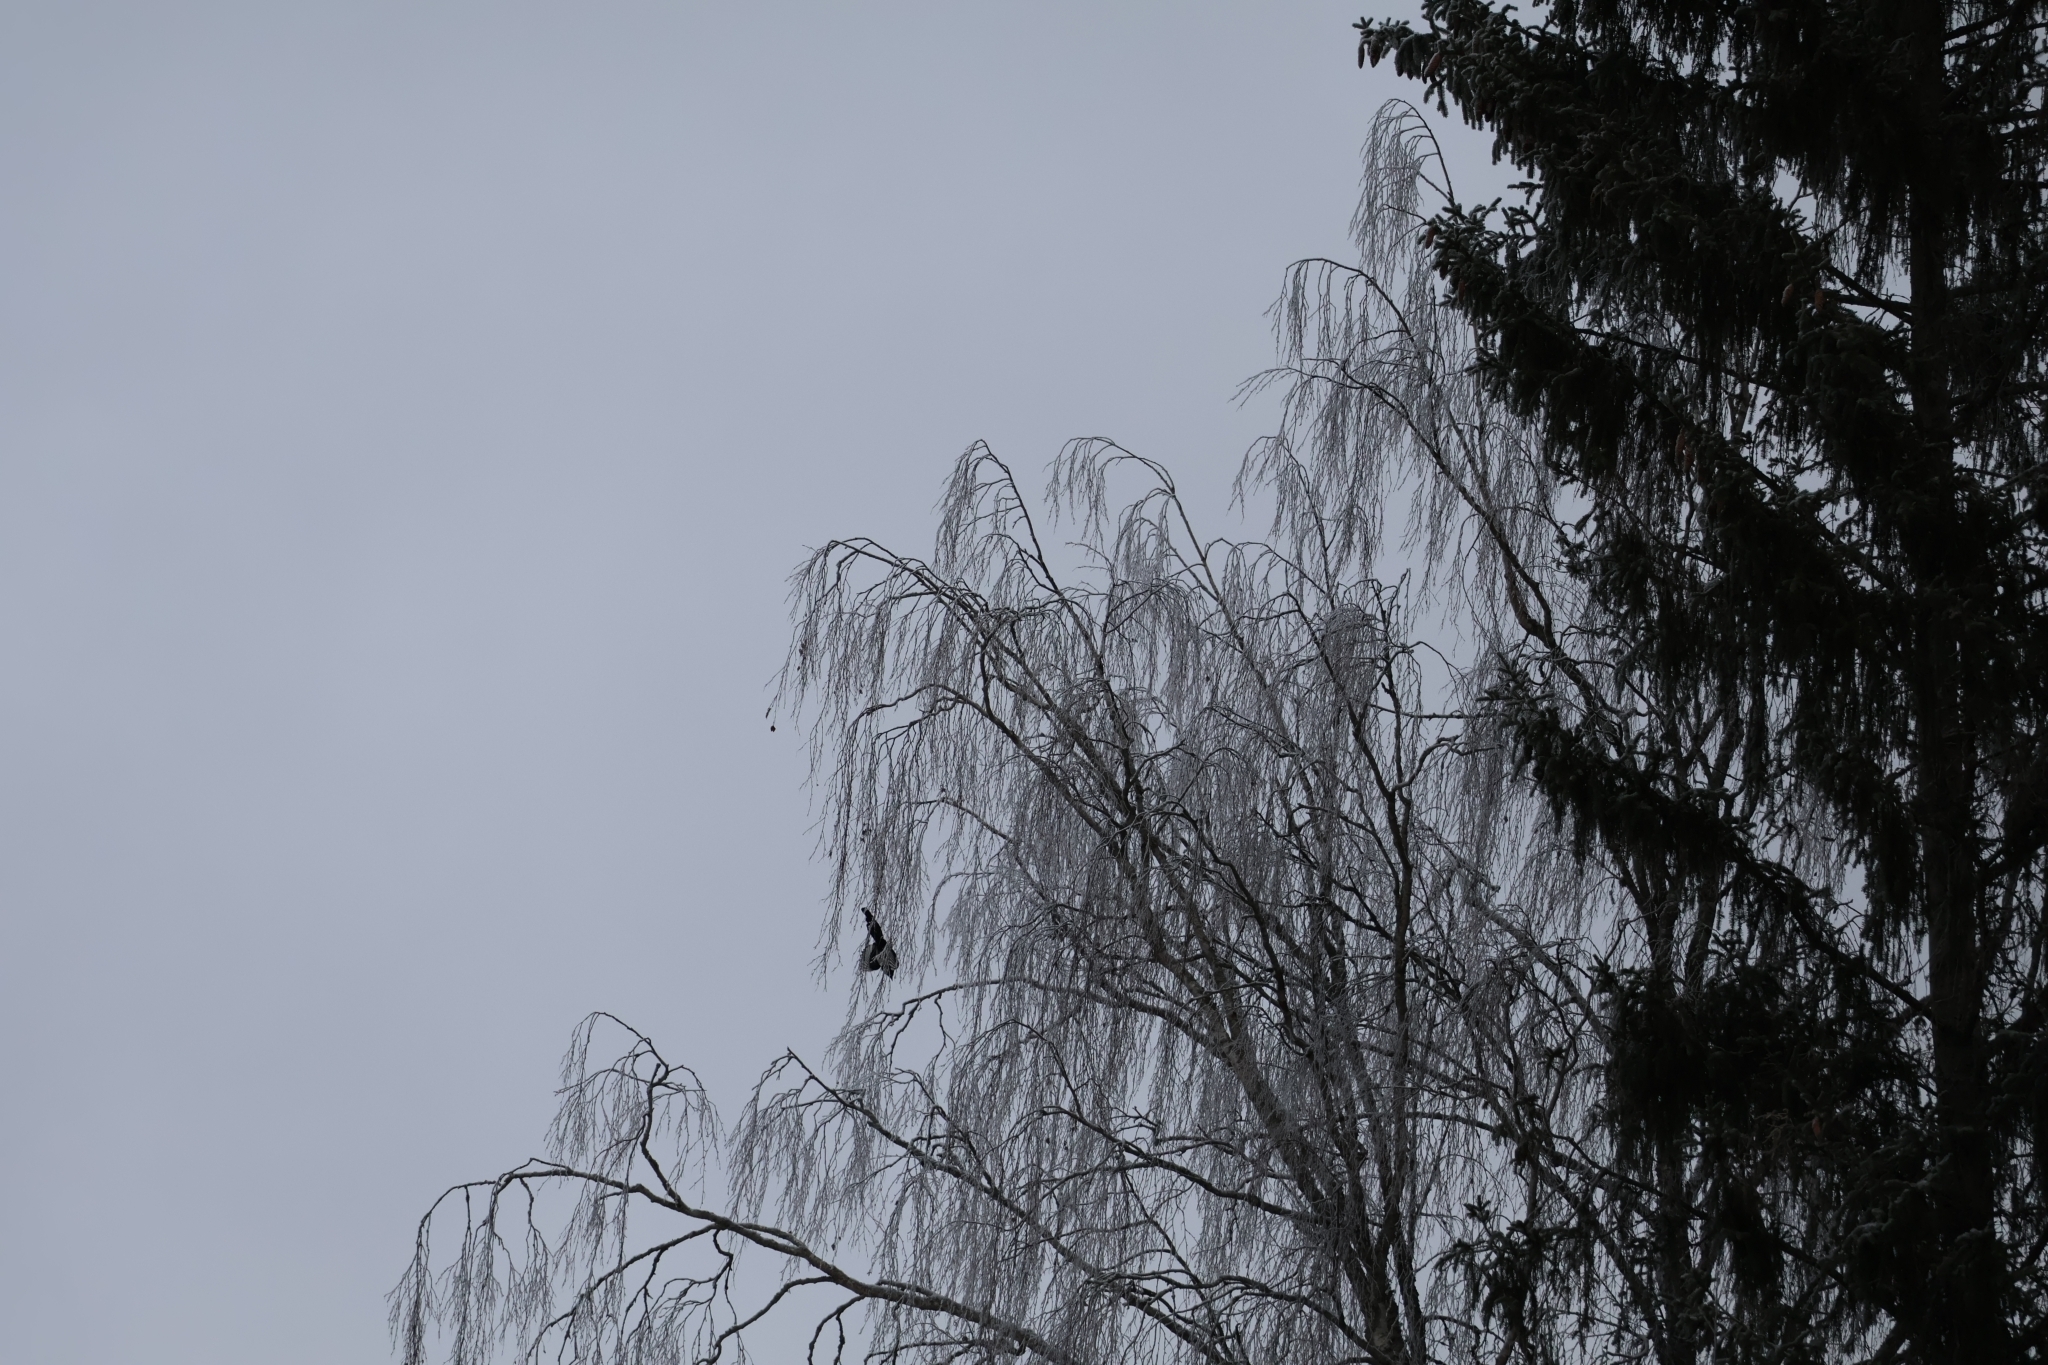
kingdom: Animalia
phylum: Chordata
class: Aves
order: Passeriformes
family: Corvidae
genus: Pica
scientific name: Pica pica
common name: Eurasian magpie
